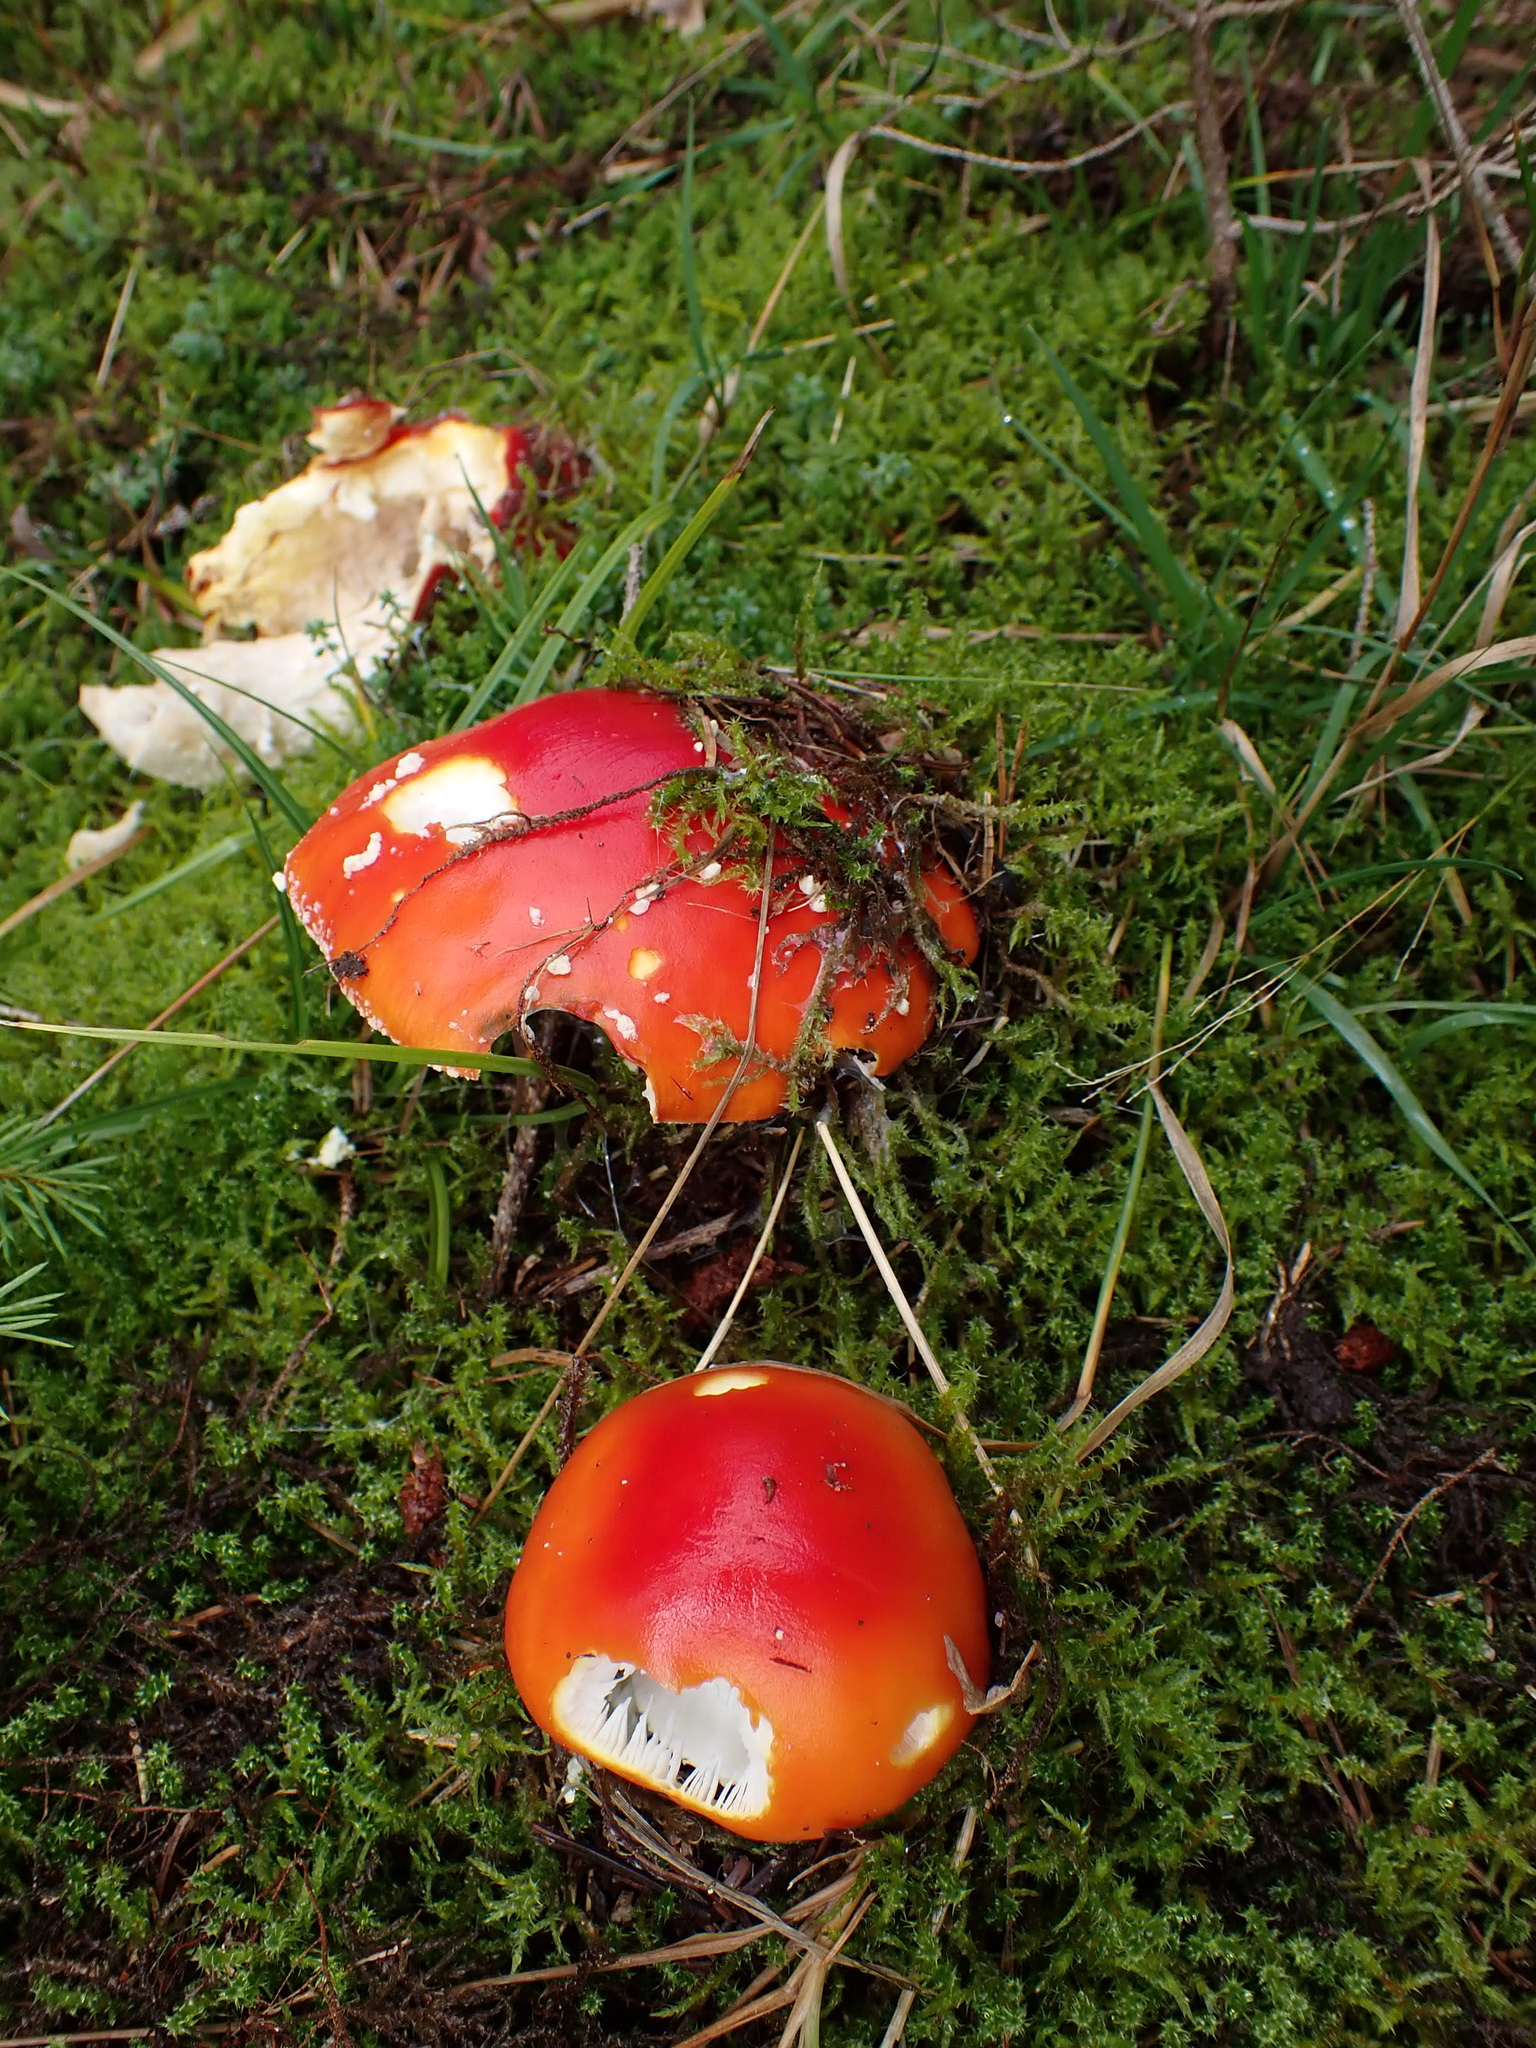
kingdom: Fungi
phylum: Basidiomycota
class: Agaricomycetes
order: Agaricales
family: Amanitaceae
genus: Amanita
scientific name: Amanita muscaria
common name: Fly agaric
